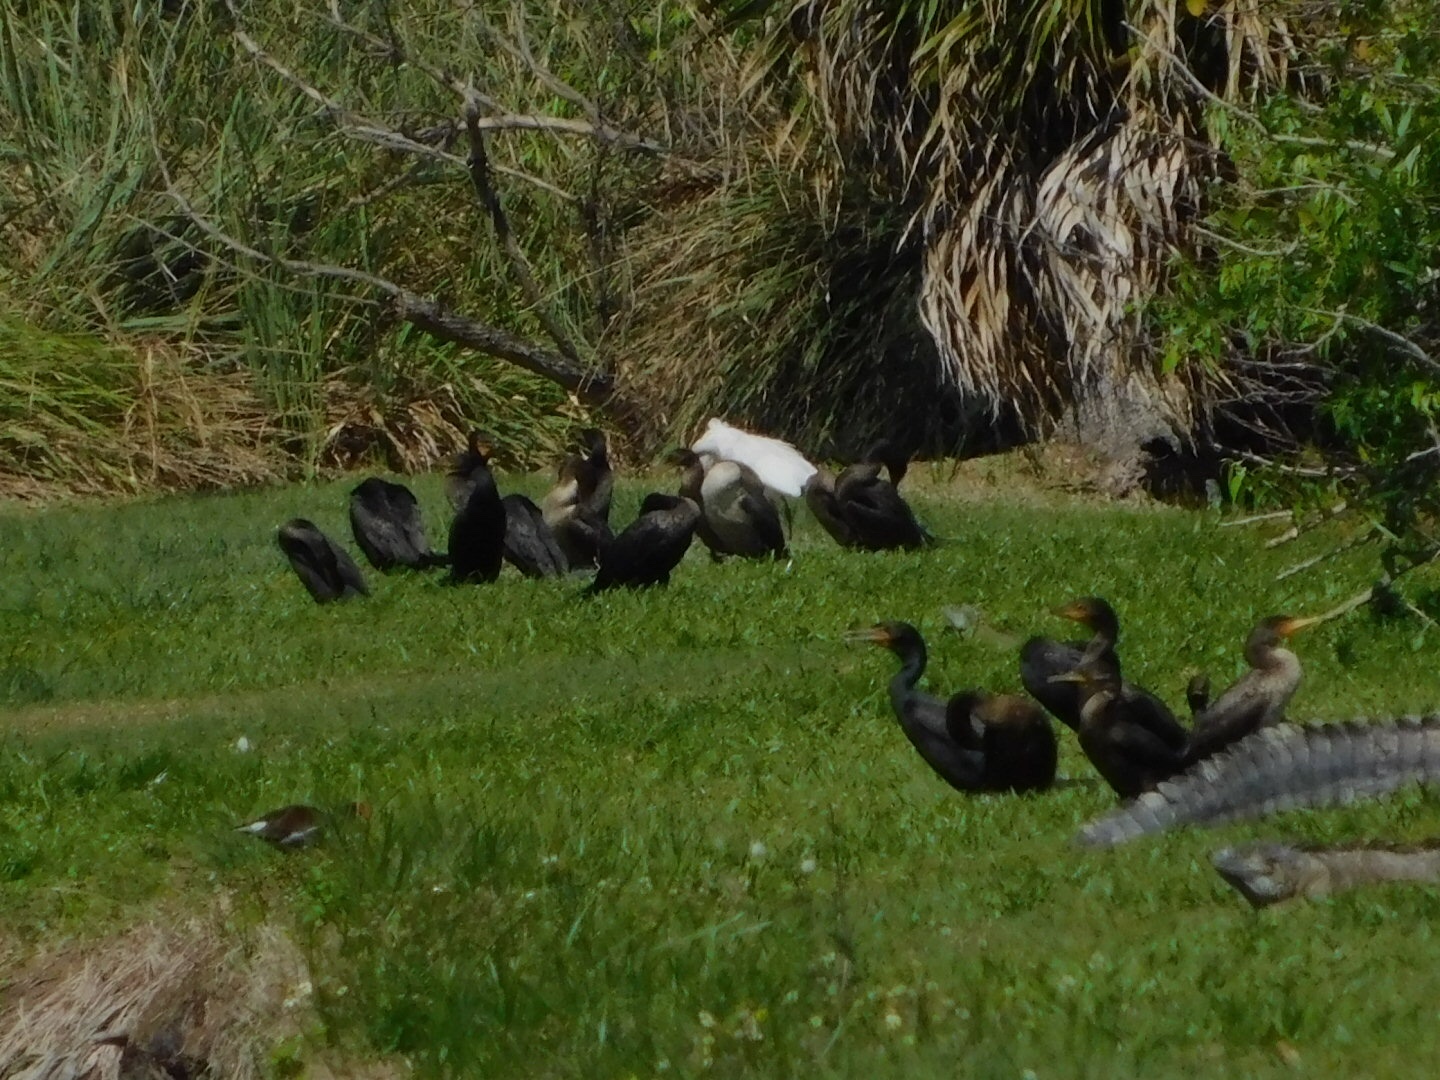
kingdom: Animalia
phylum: Chordata
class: Aves
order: Suliformes
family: Phalacrocoracidae
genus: Phalacrocorax
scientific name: Phalacrocorax auritus
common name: Double-crested cormorant
